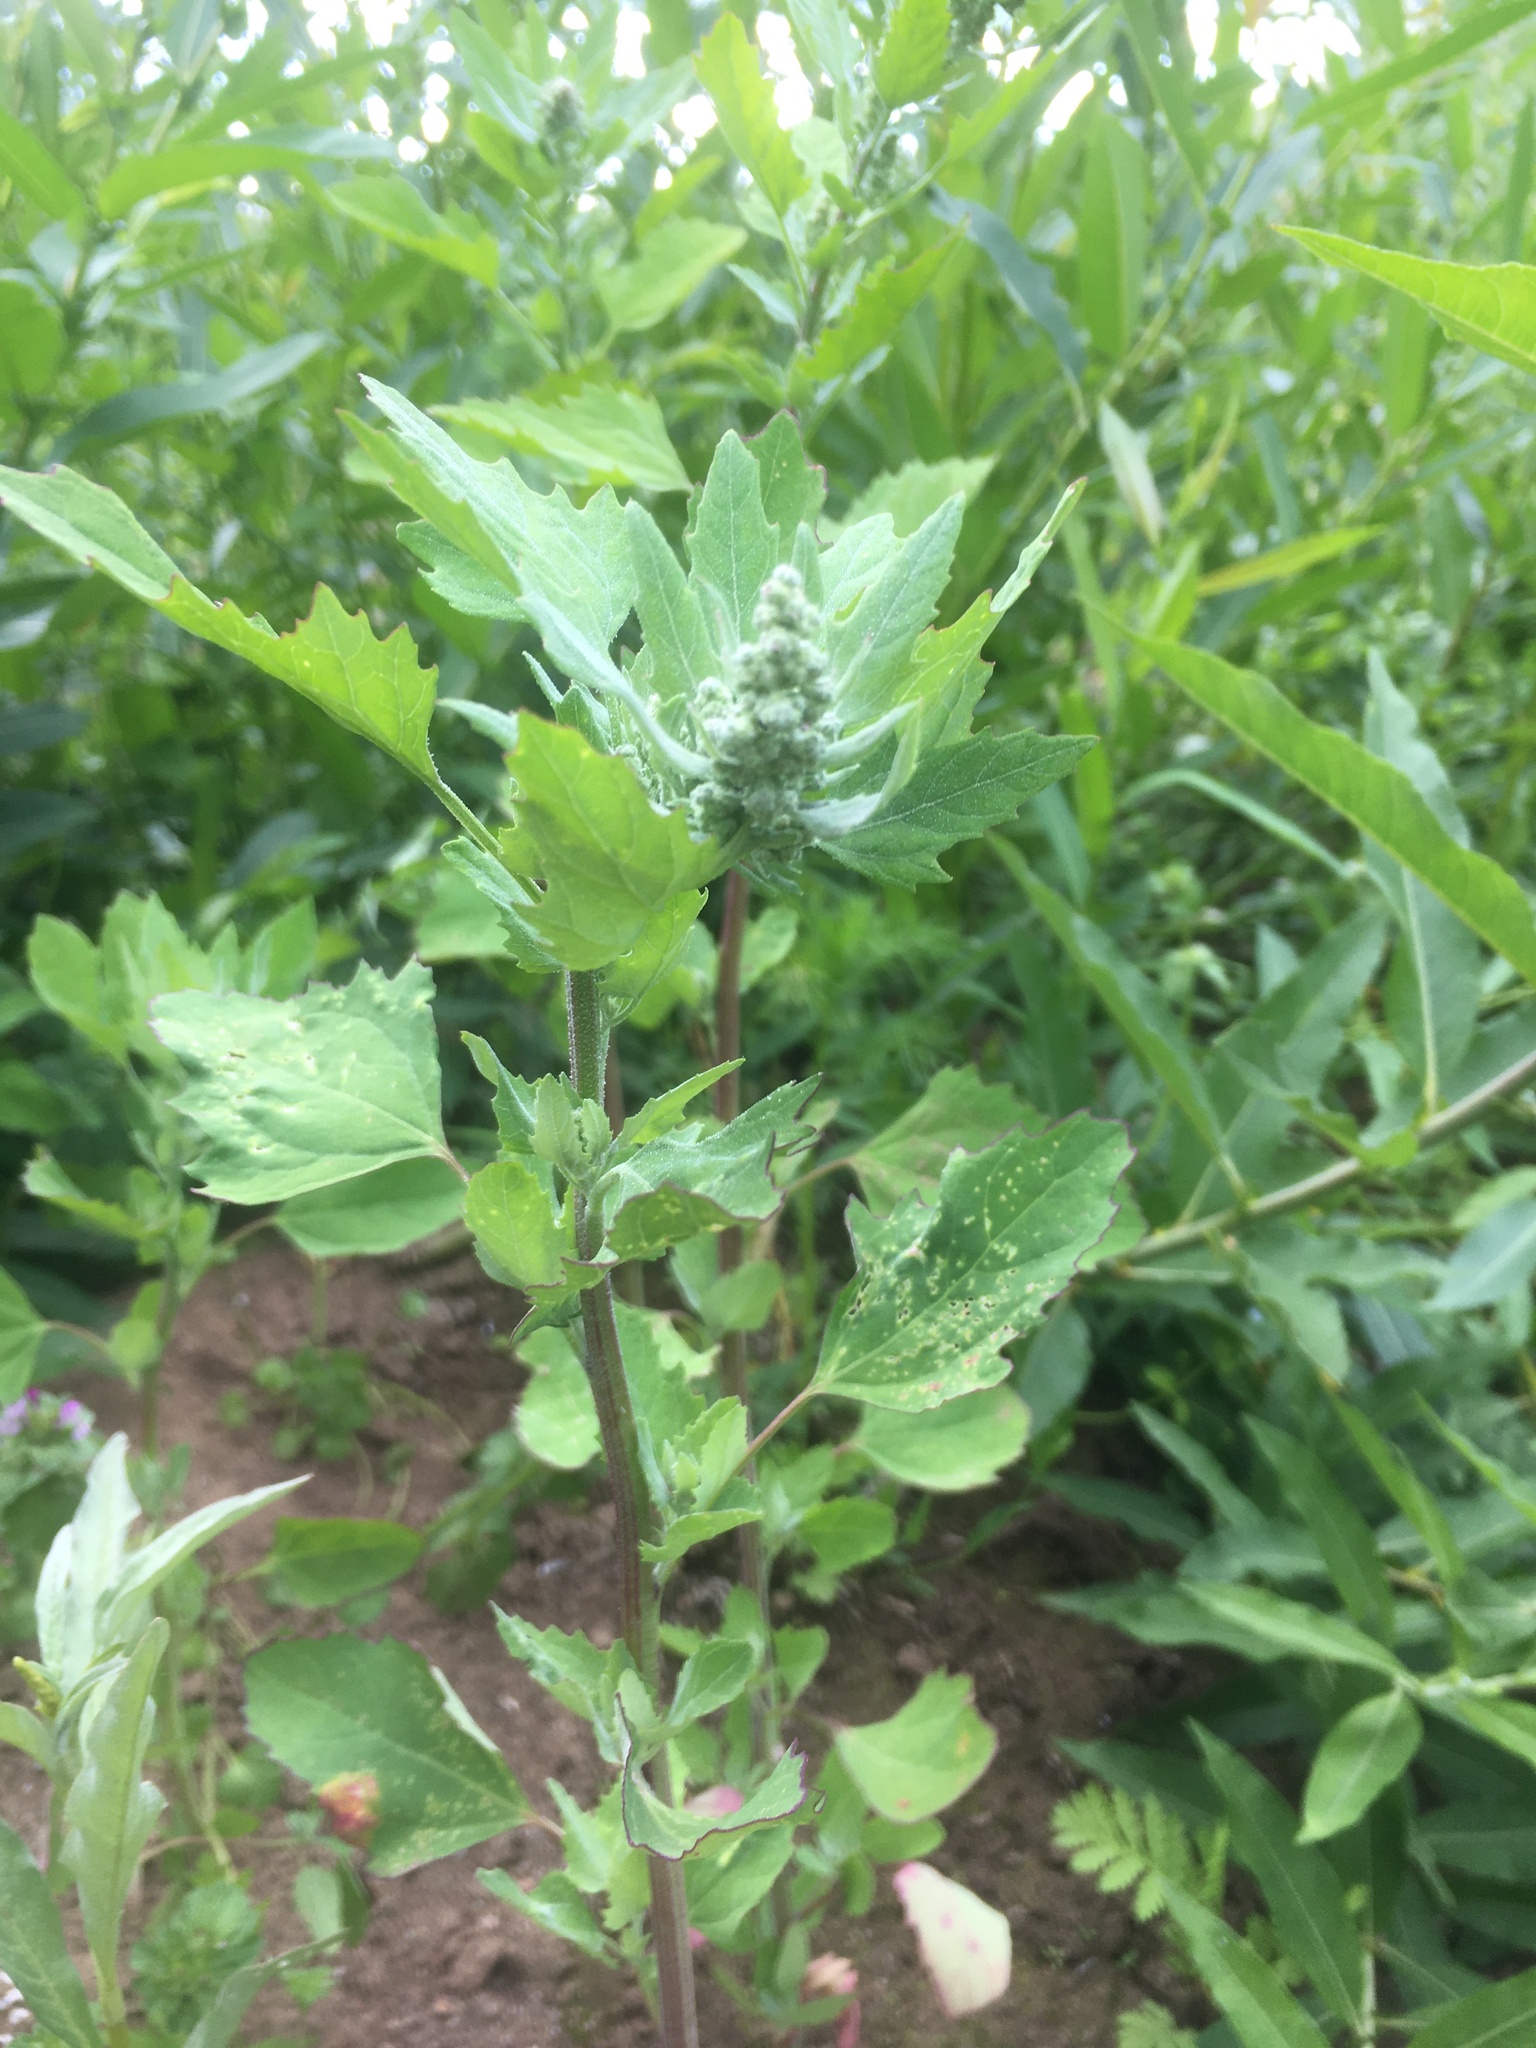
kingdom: Plantae
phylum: Tracheophyta
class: Magnoliopsida
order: Caryophyllales
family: Amaranthaceae
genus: Chenopodium
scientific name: Chenopodium album
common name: Fat-hen
